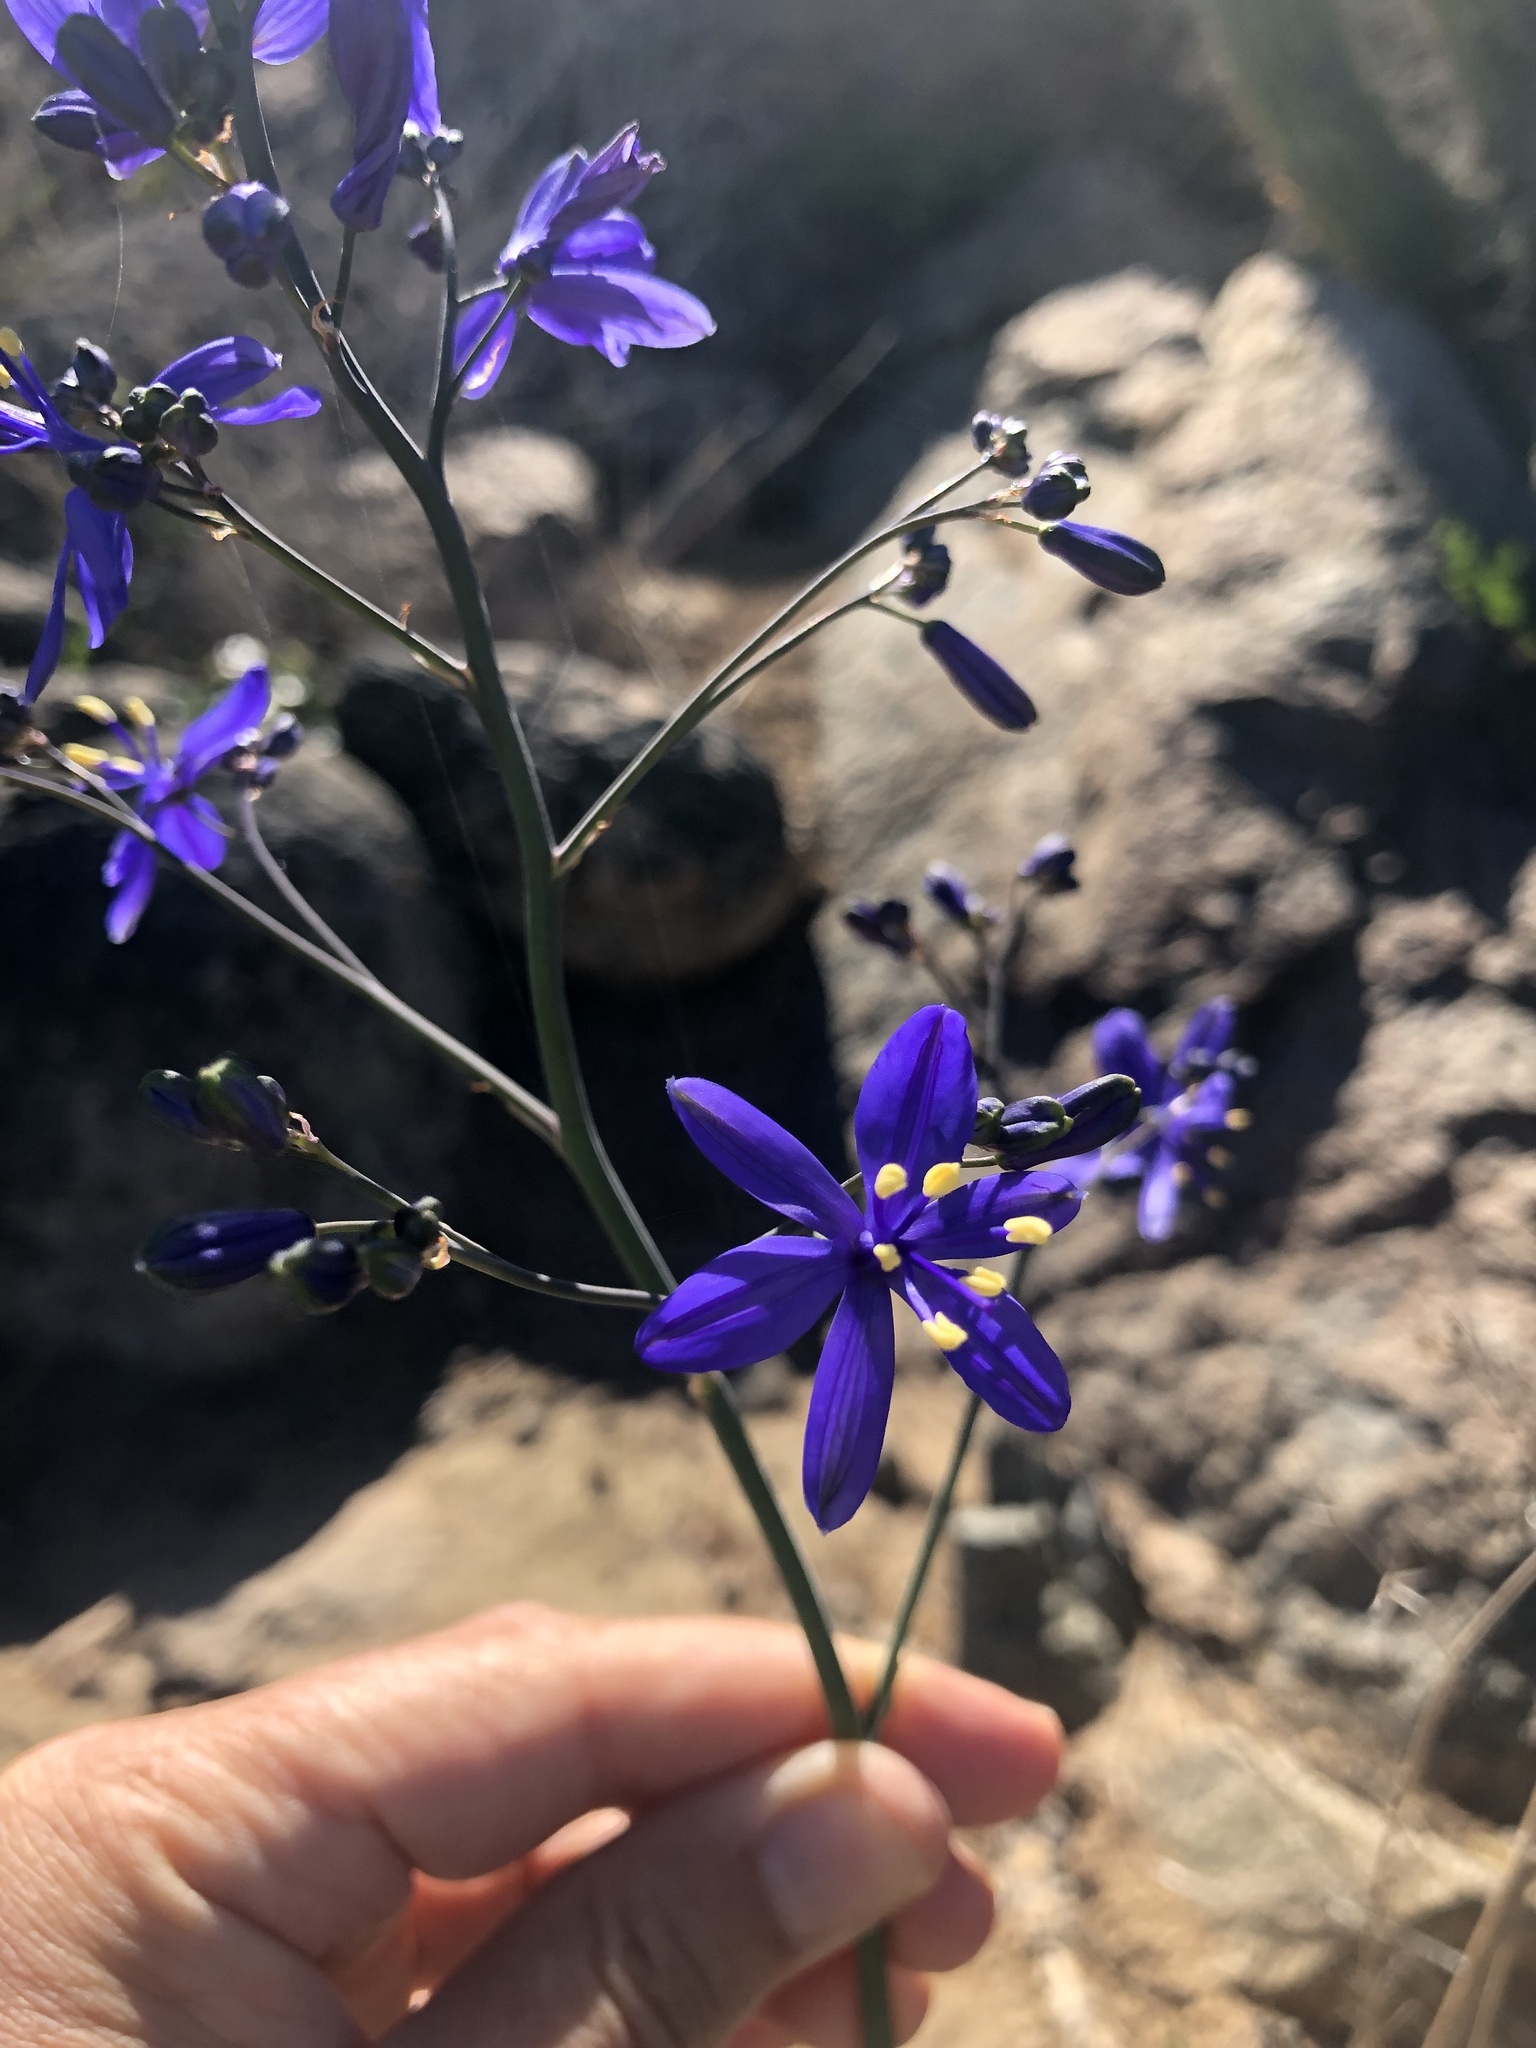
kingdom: Plantae
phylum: Tracheophyta
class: Liliopsida
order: Asparagales
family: Asphodelaceae
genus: Pasithea
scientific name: Pasithea caerulea
